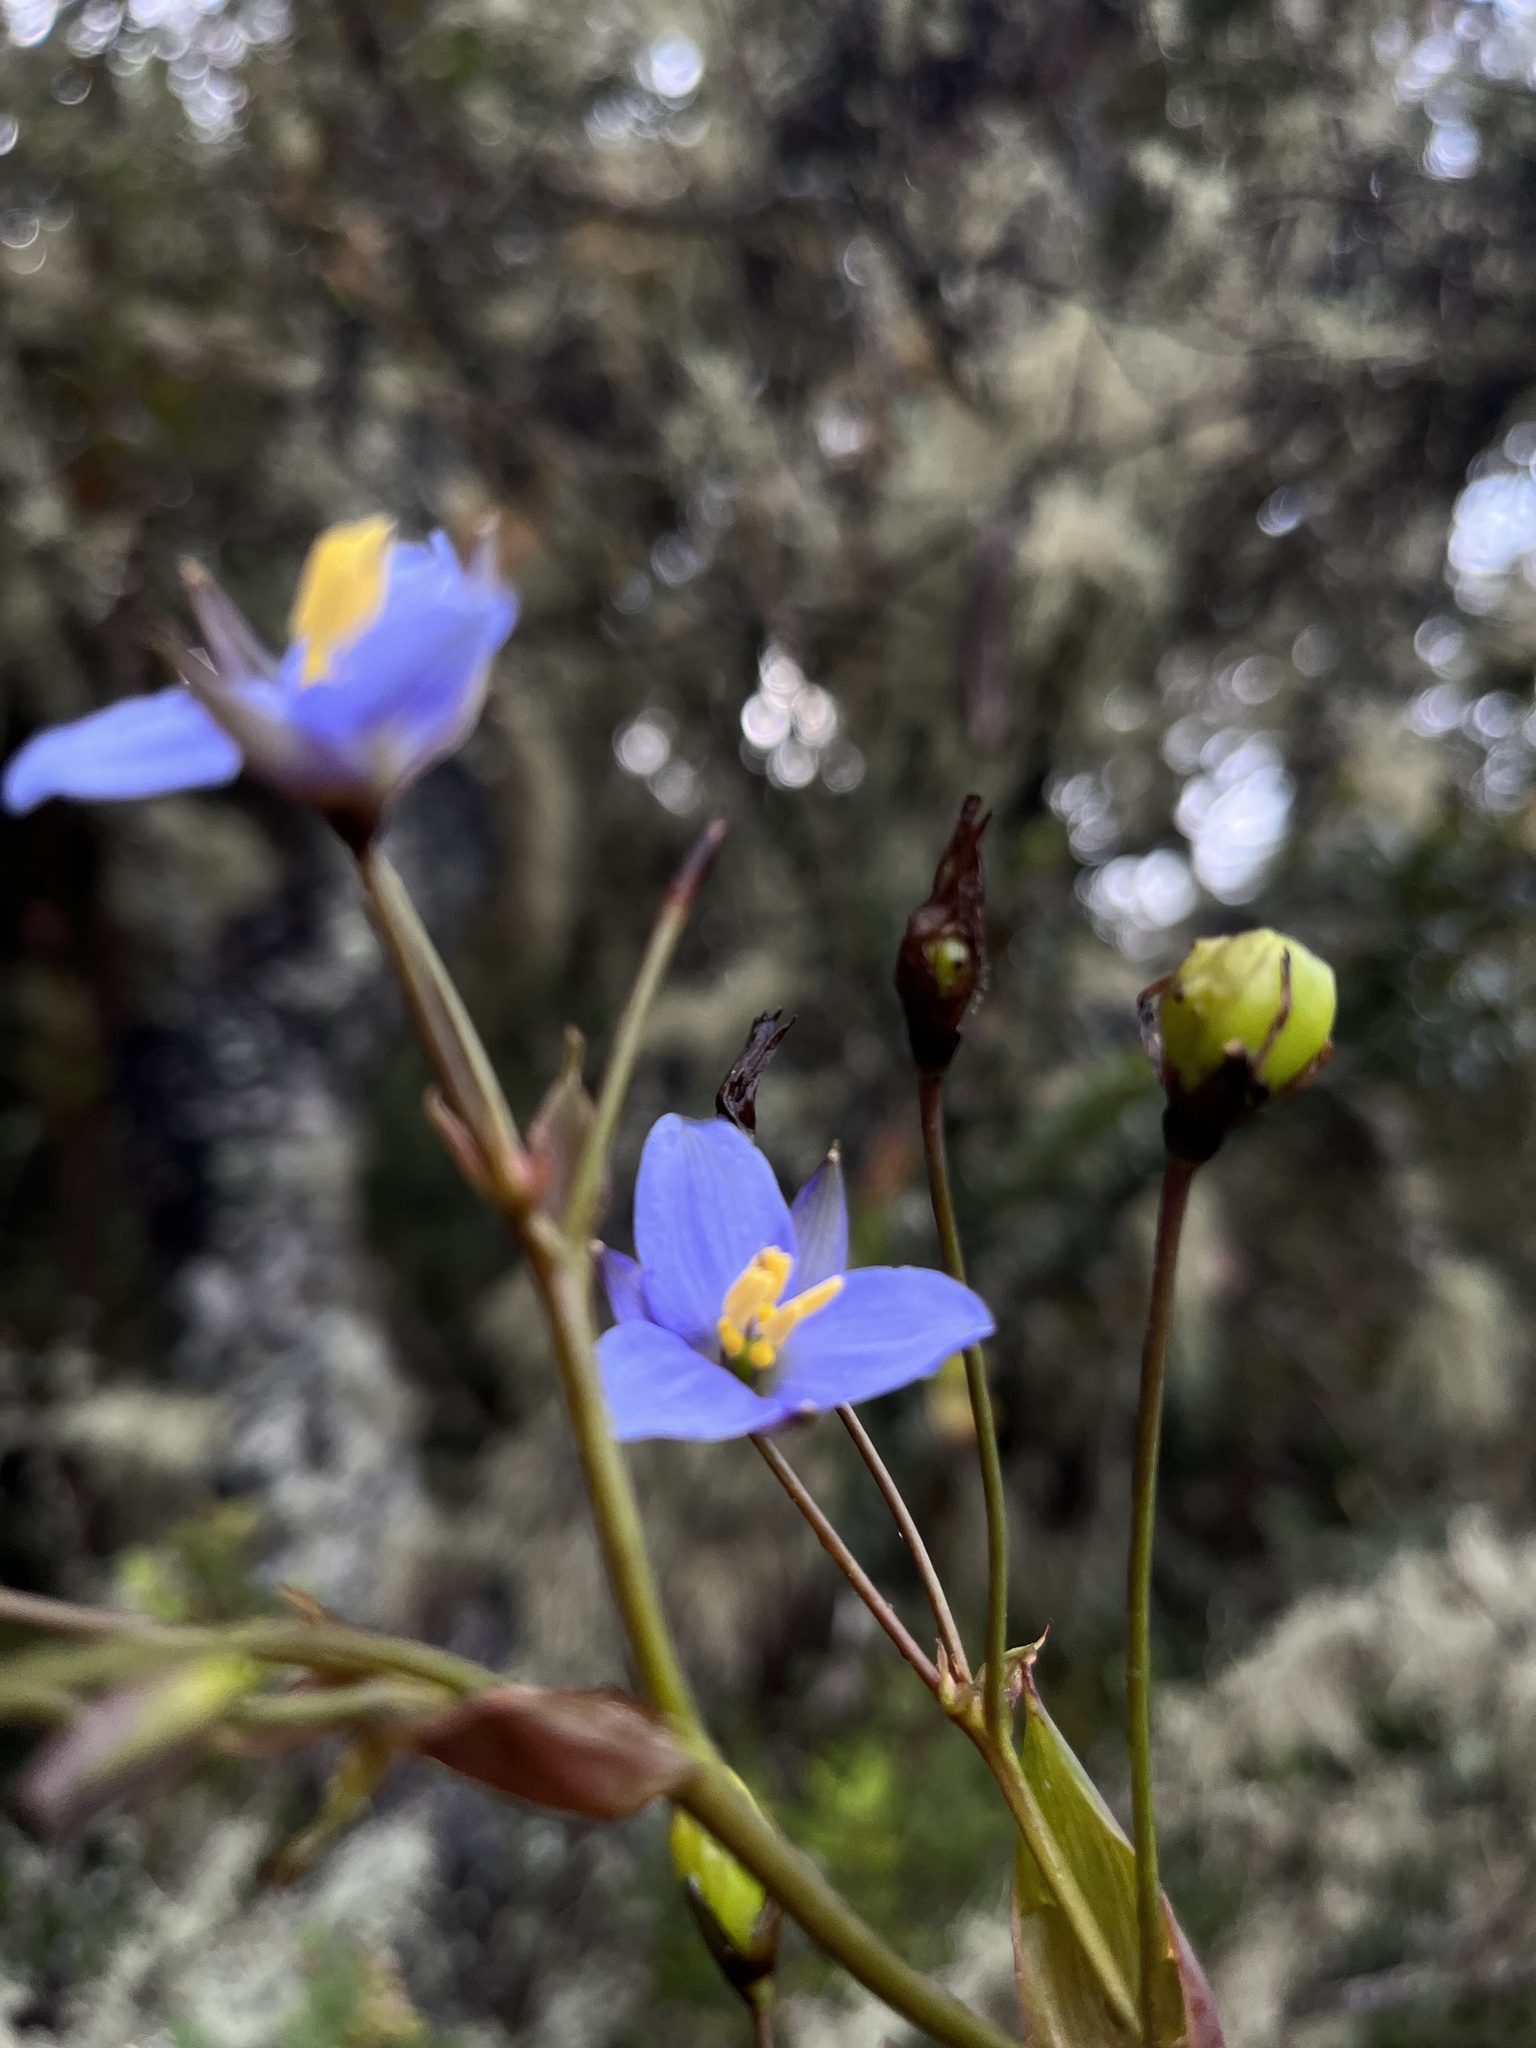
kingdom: Plantae
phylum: Tracheophyta
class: Liliopsida
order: Asparagales
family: Asphodelaceae
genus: Excremis
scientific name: Excremis coarctata
